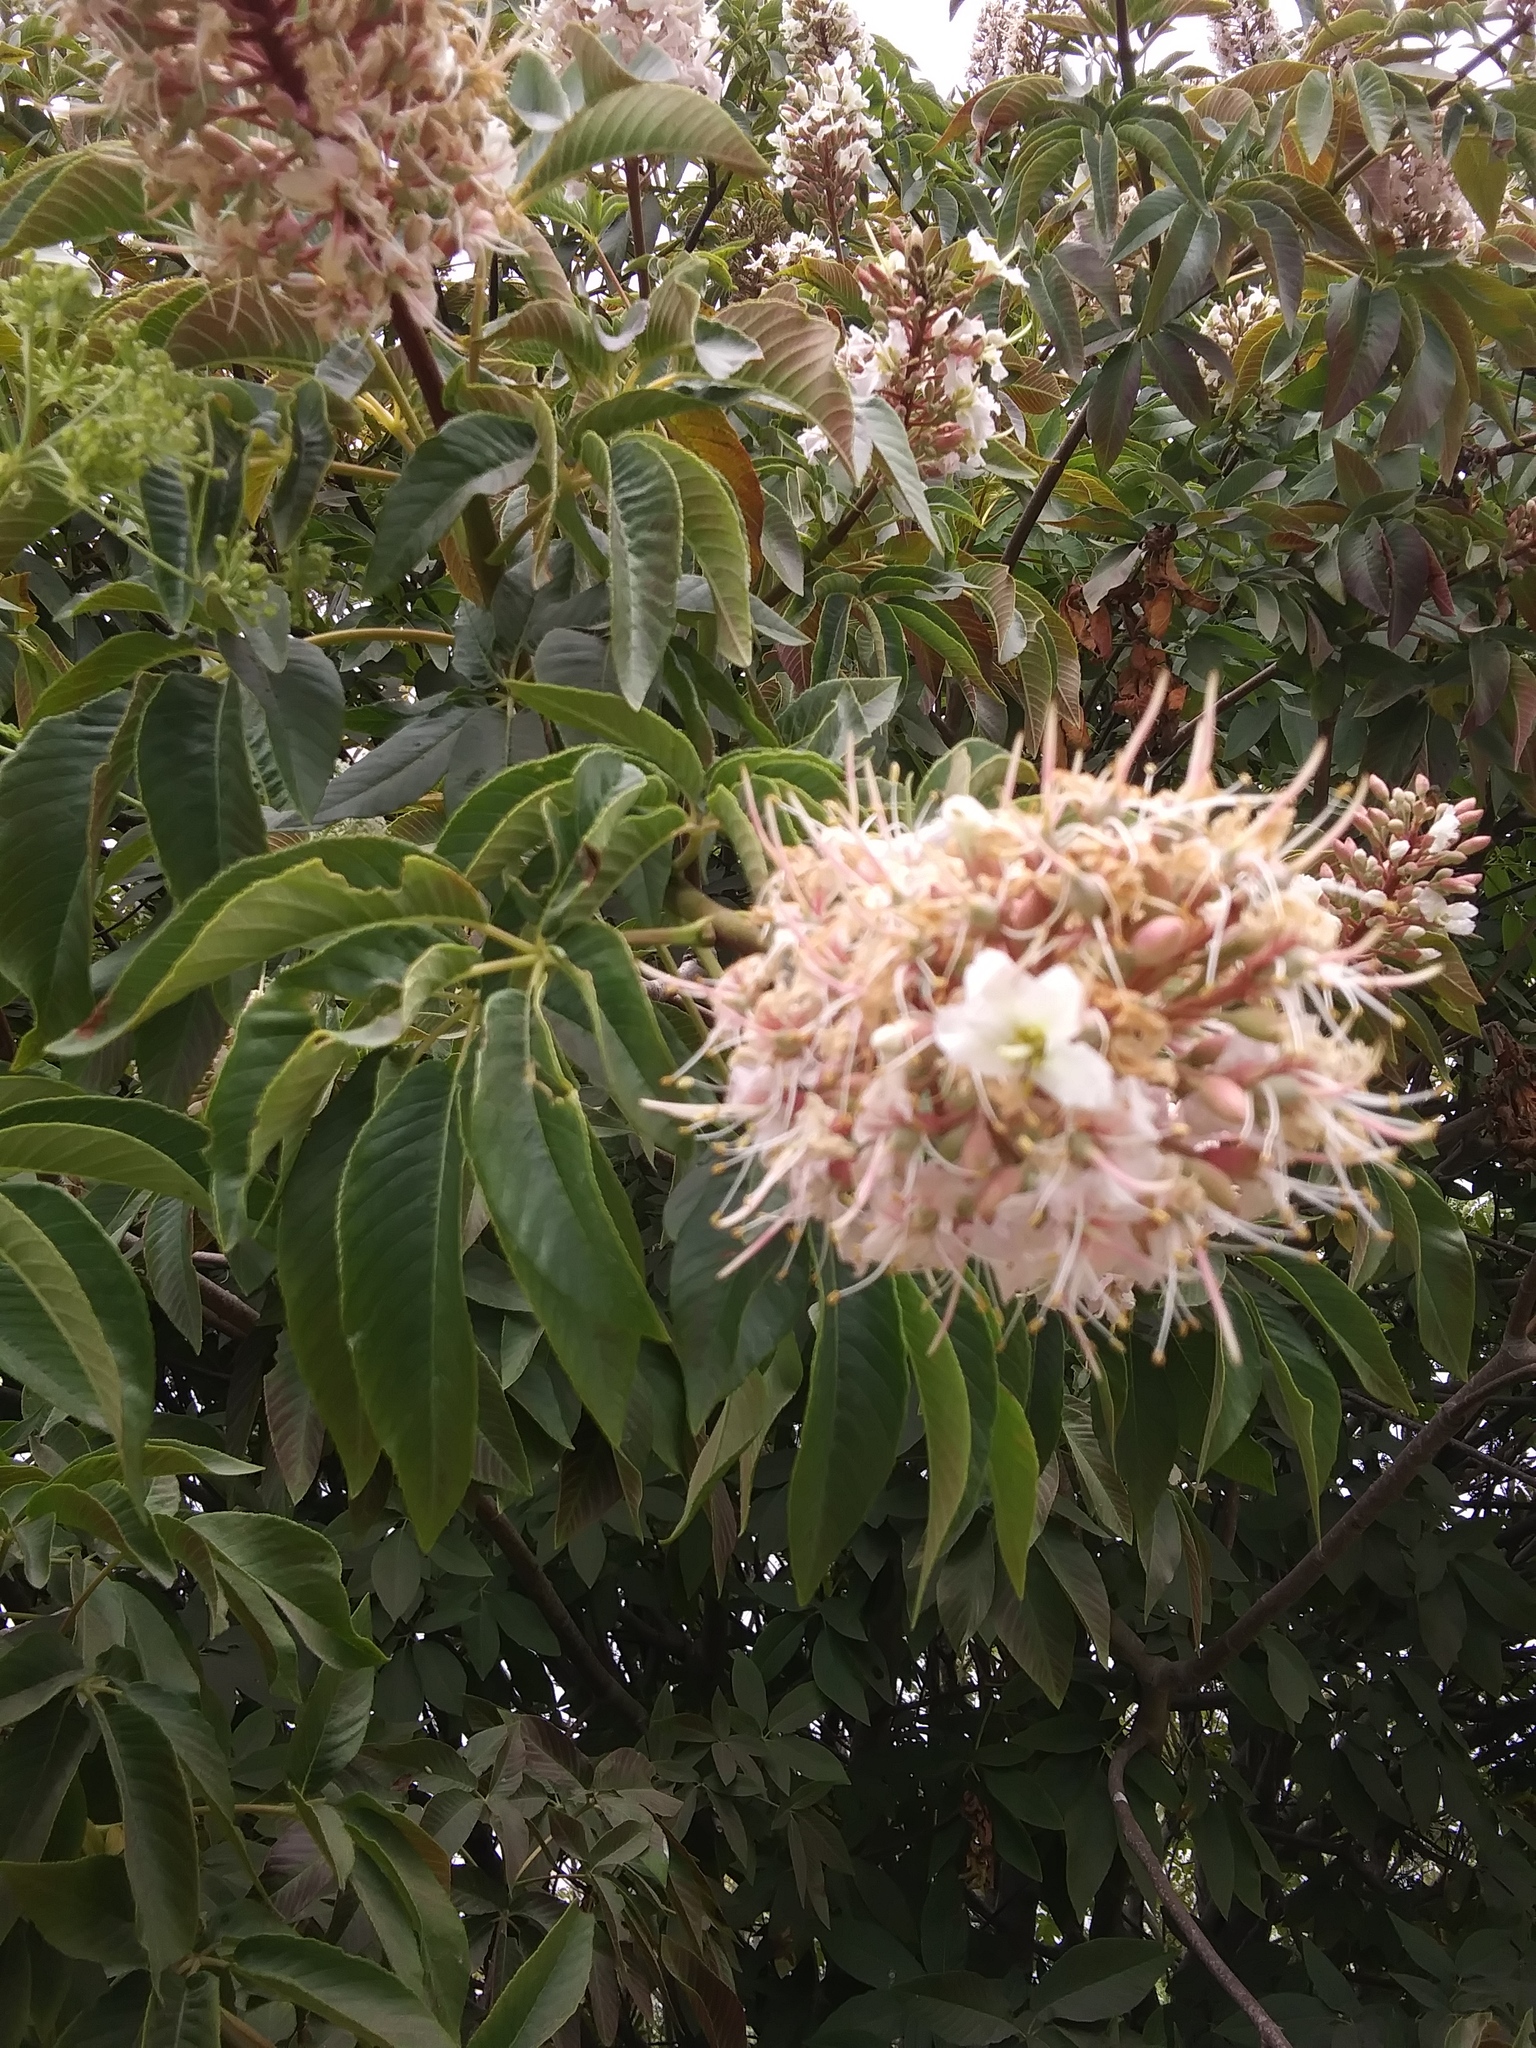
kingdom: Plantae
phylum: Tracheophyta
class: Magnoliopsida
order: Sapindales
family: Sapindaceae
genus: Aesculus
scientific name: Aesculus californica
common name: California buckeye
